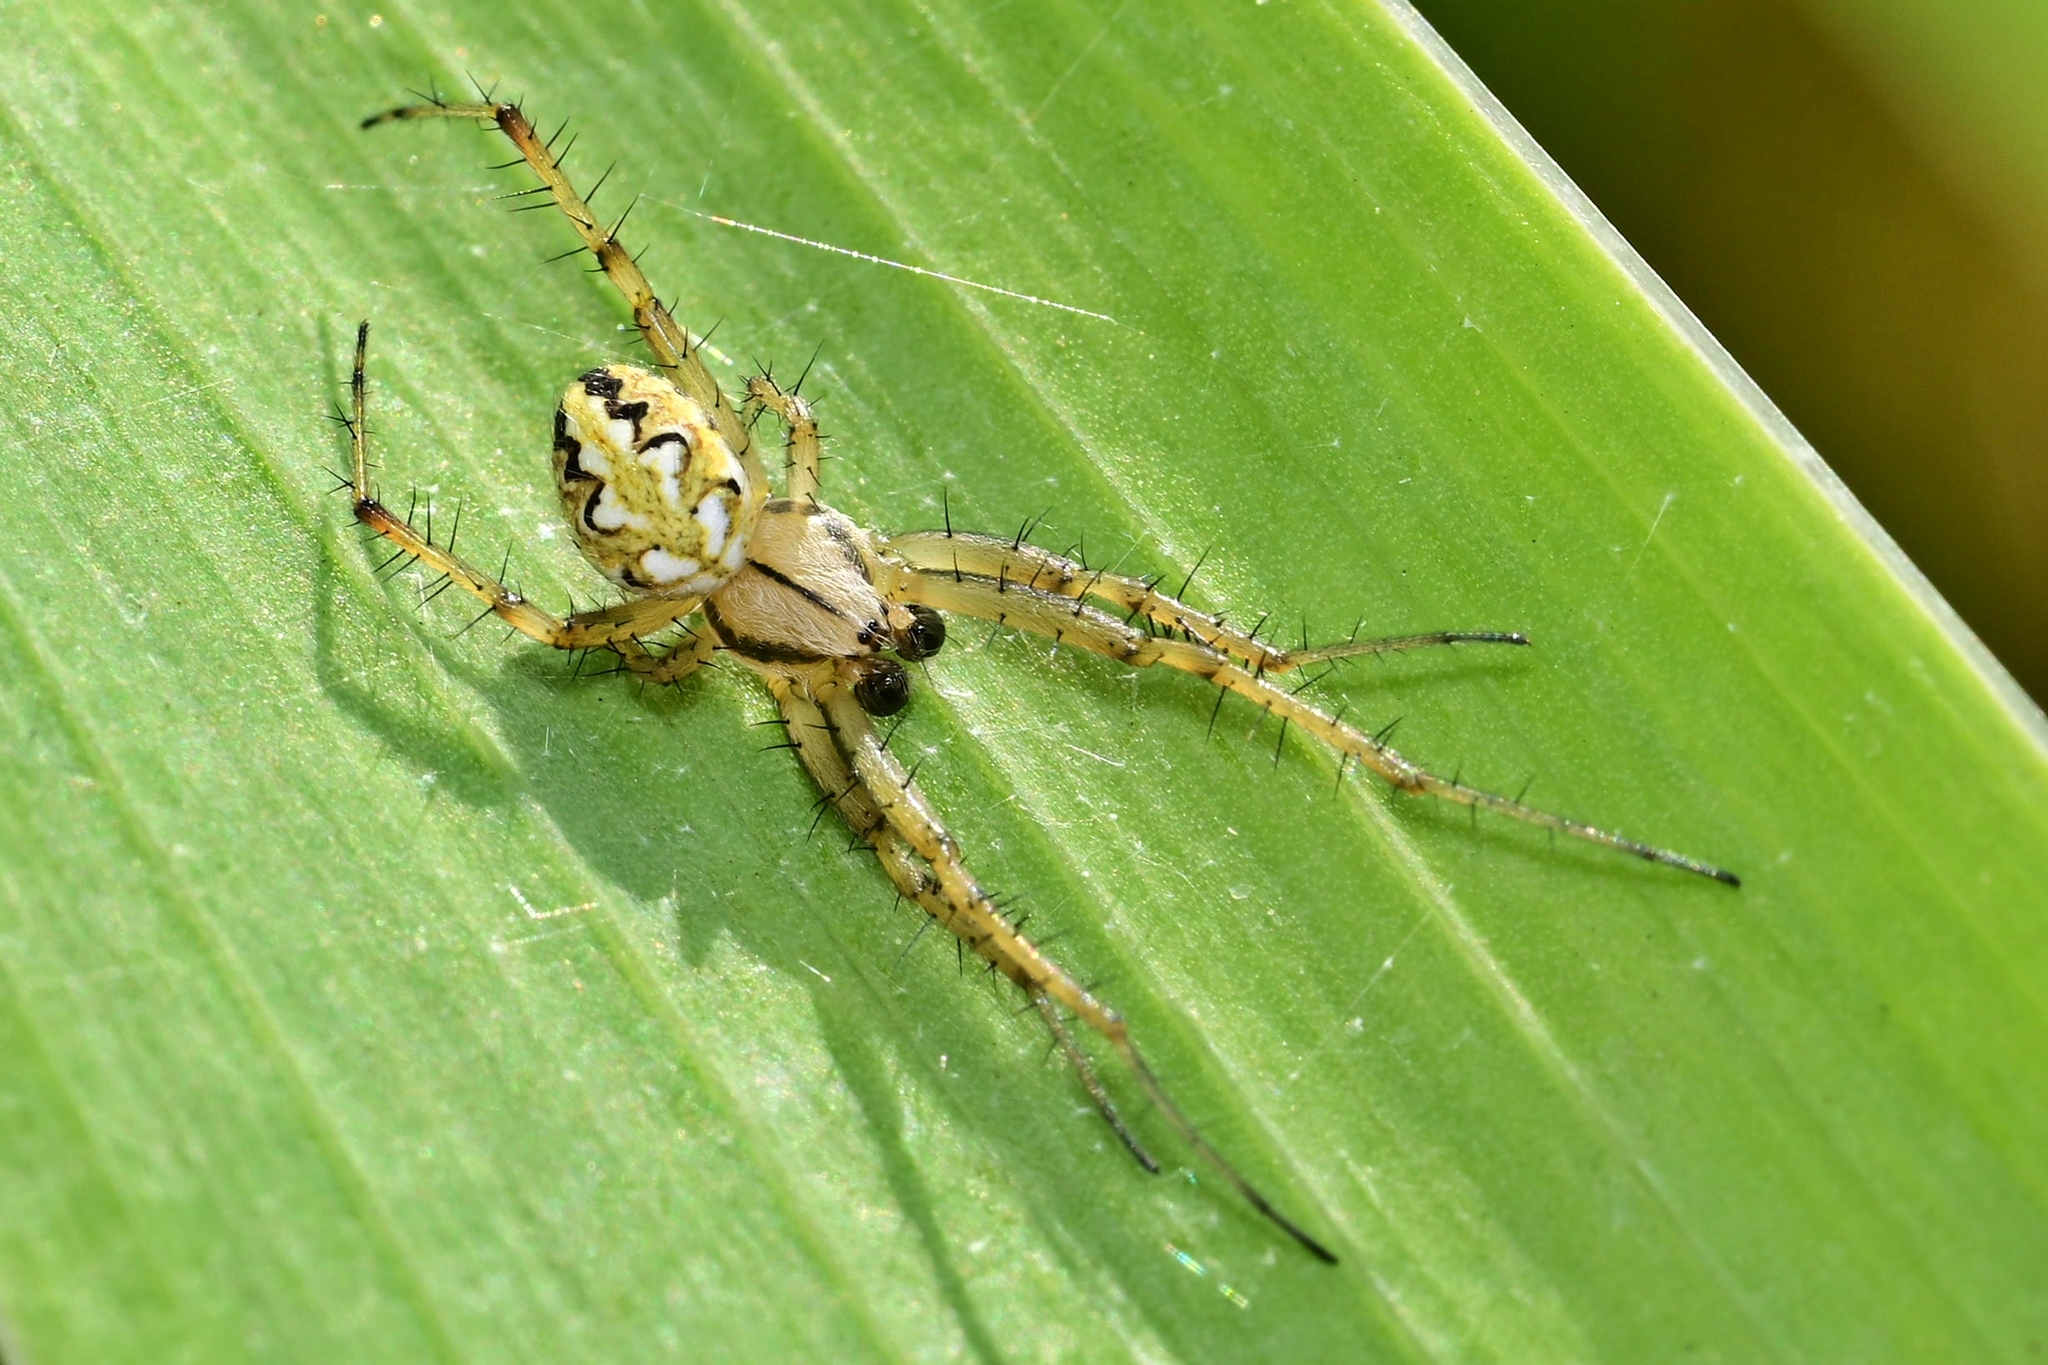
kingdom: Animalia
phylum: Arthropoda
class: Arachnida
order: Araneae
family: Araneidae
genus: Neoscona
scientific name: Neoscona adianta
